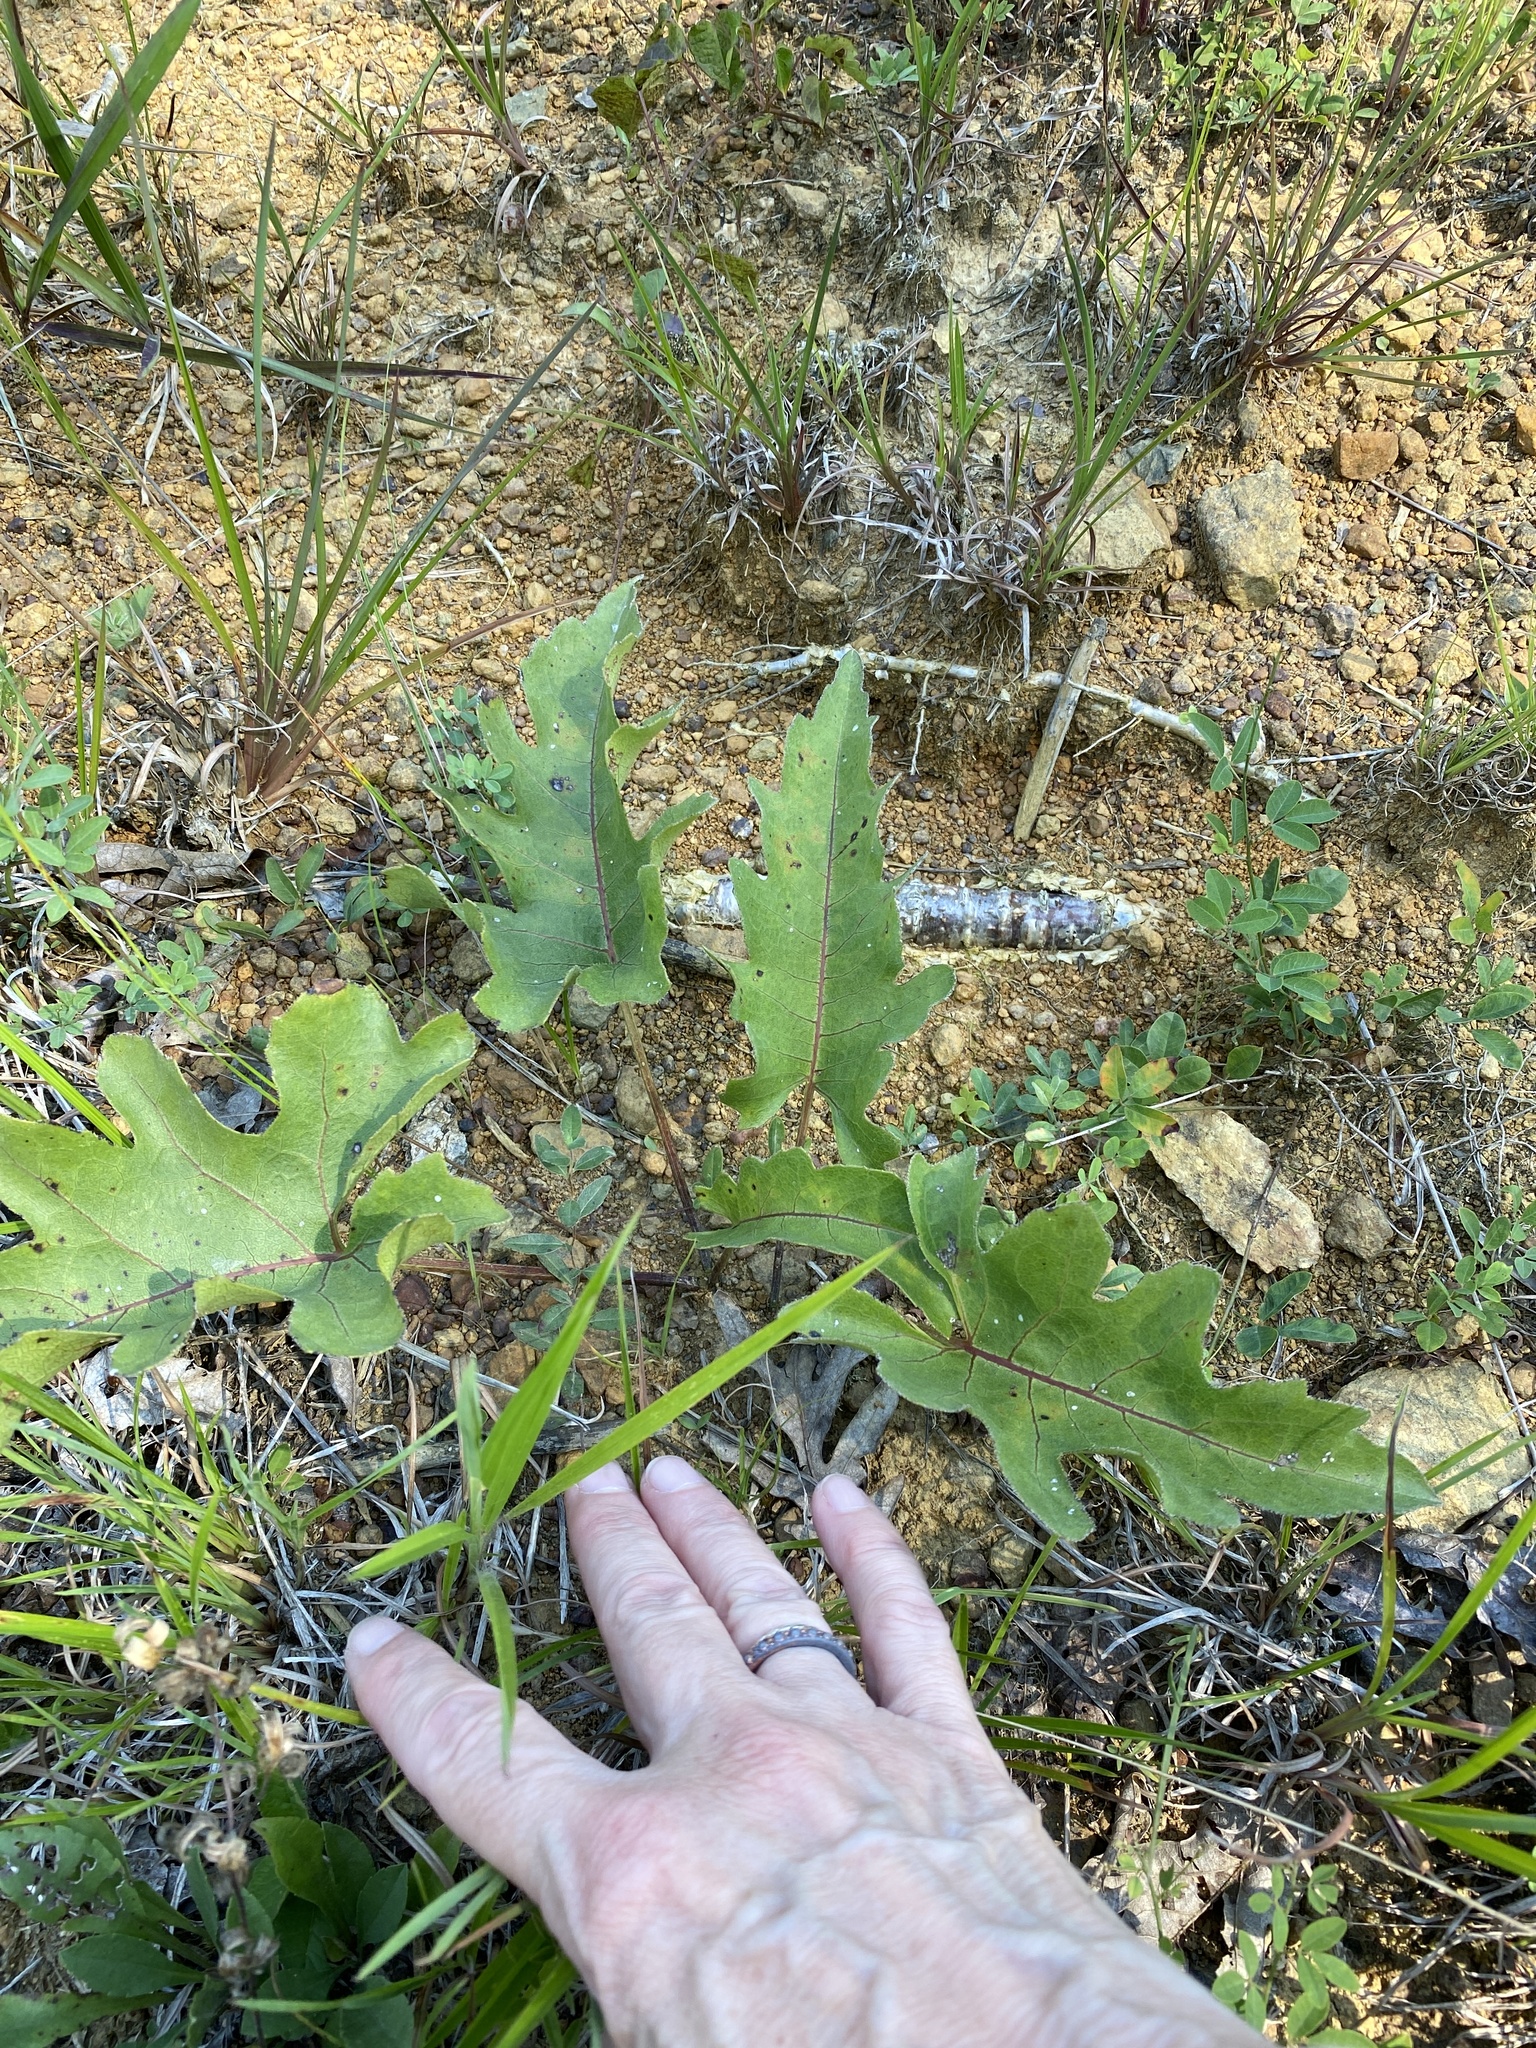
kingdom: Plantae
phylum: Tracheophyta
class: Magnoliopsida
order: Asterales
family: Asteraceae
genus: Silphium
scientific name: Silphium compositum
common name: Lesser basal-leaf rosinweed
